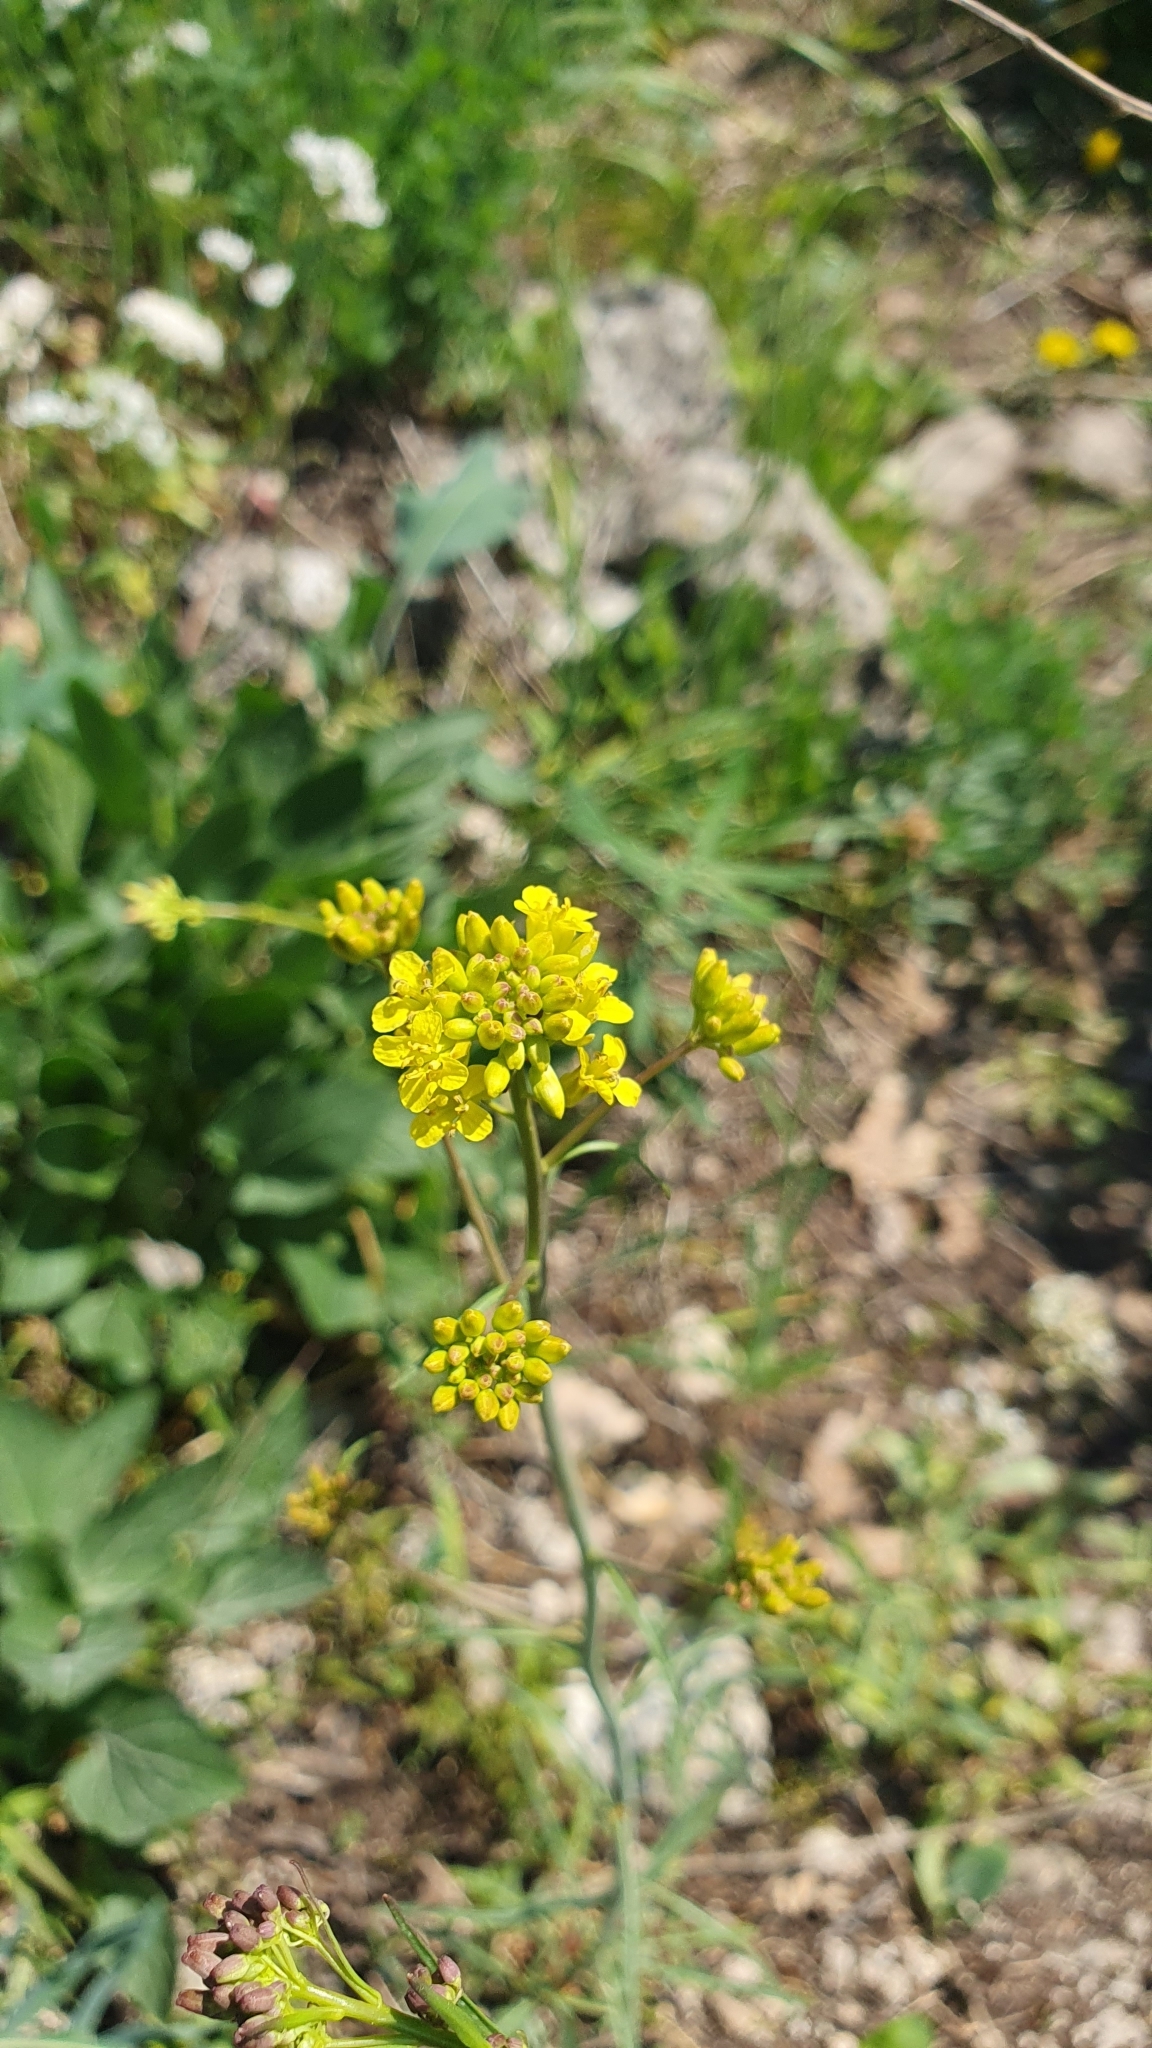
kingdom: Plantae
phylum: Tracheophyta
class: Magnoliopsida
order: Brassicales
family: Brassicaceae
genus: Sisymbrium
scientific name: Sisymbrium polymorphum
